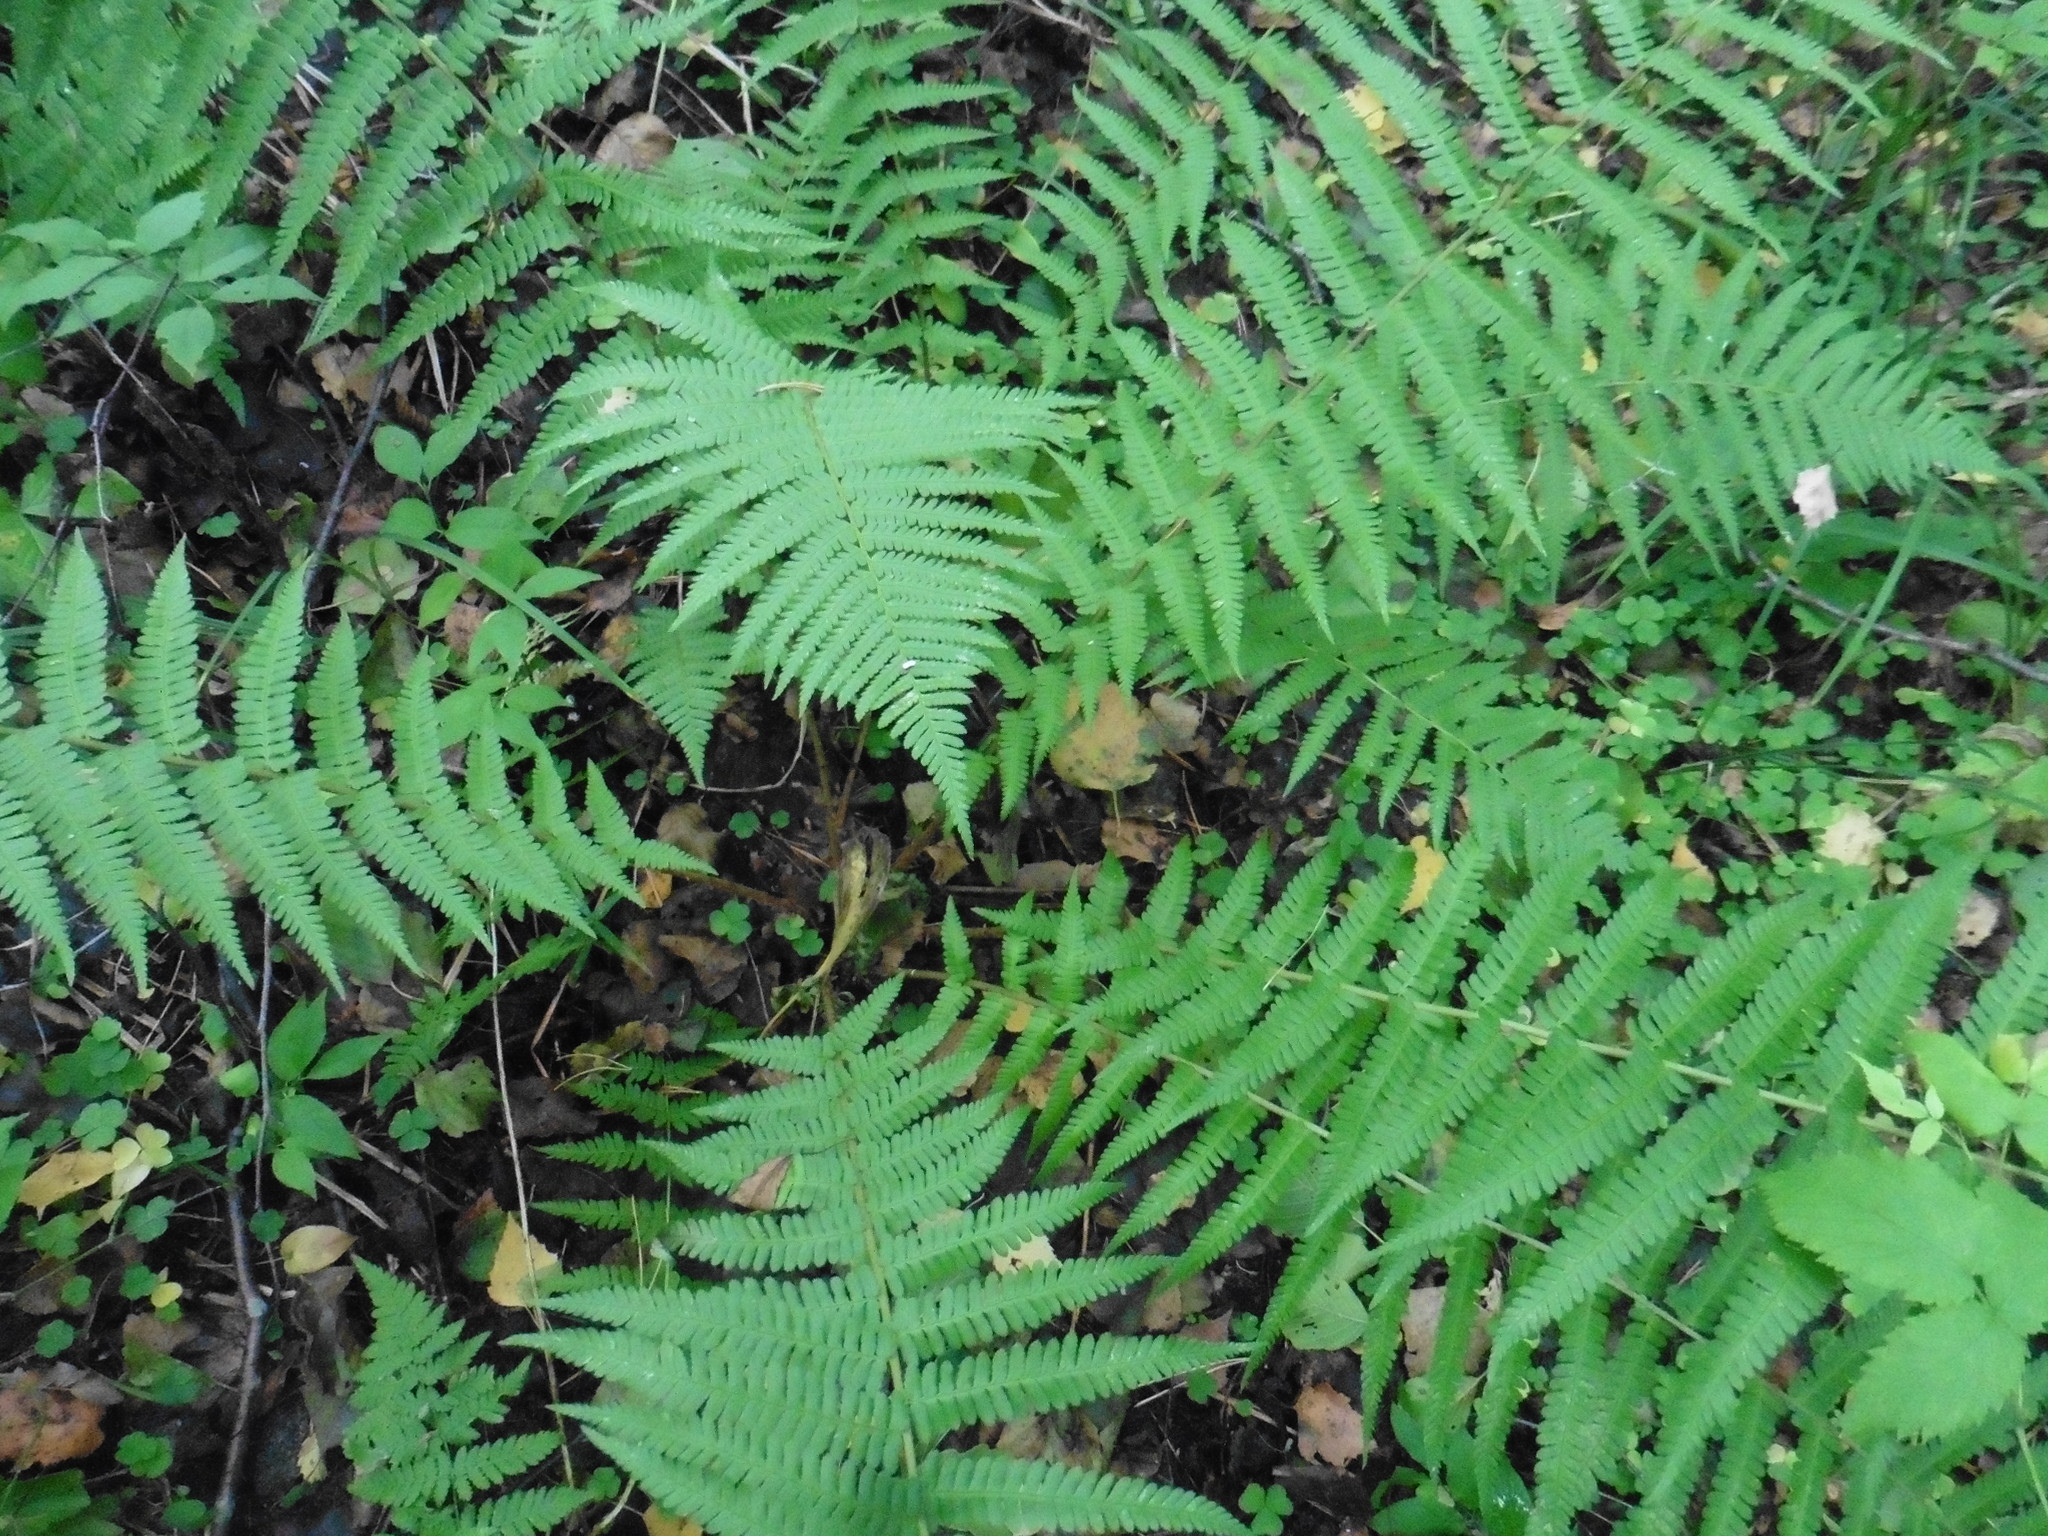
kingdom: Plantae
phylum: Tracheophyta
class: Polypodiopsida
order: Polypodiales
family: Dryopteridaceae
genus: Dryopteris
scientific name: Dryopteris filix-mas
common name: Male fern
